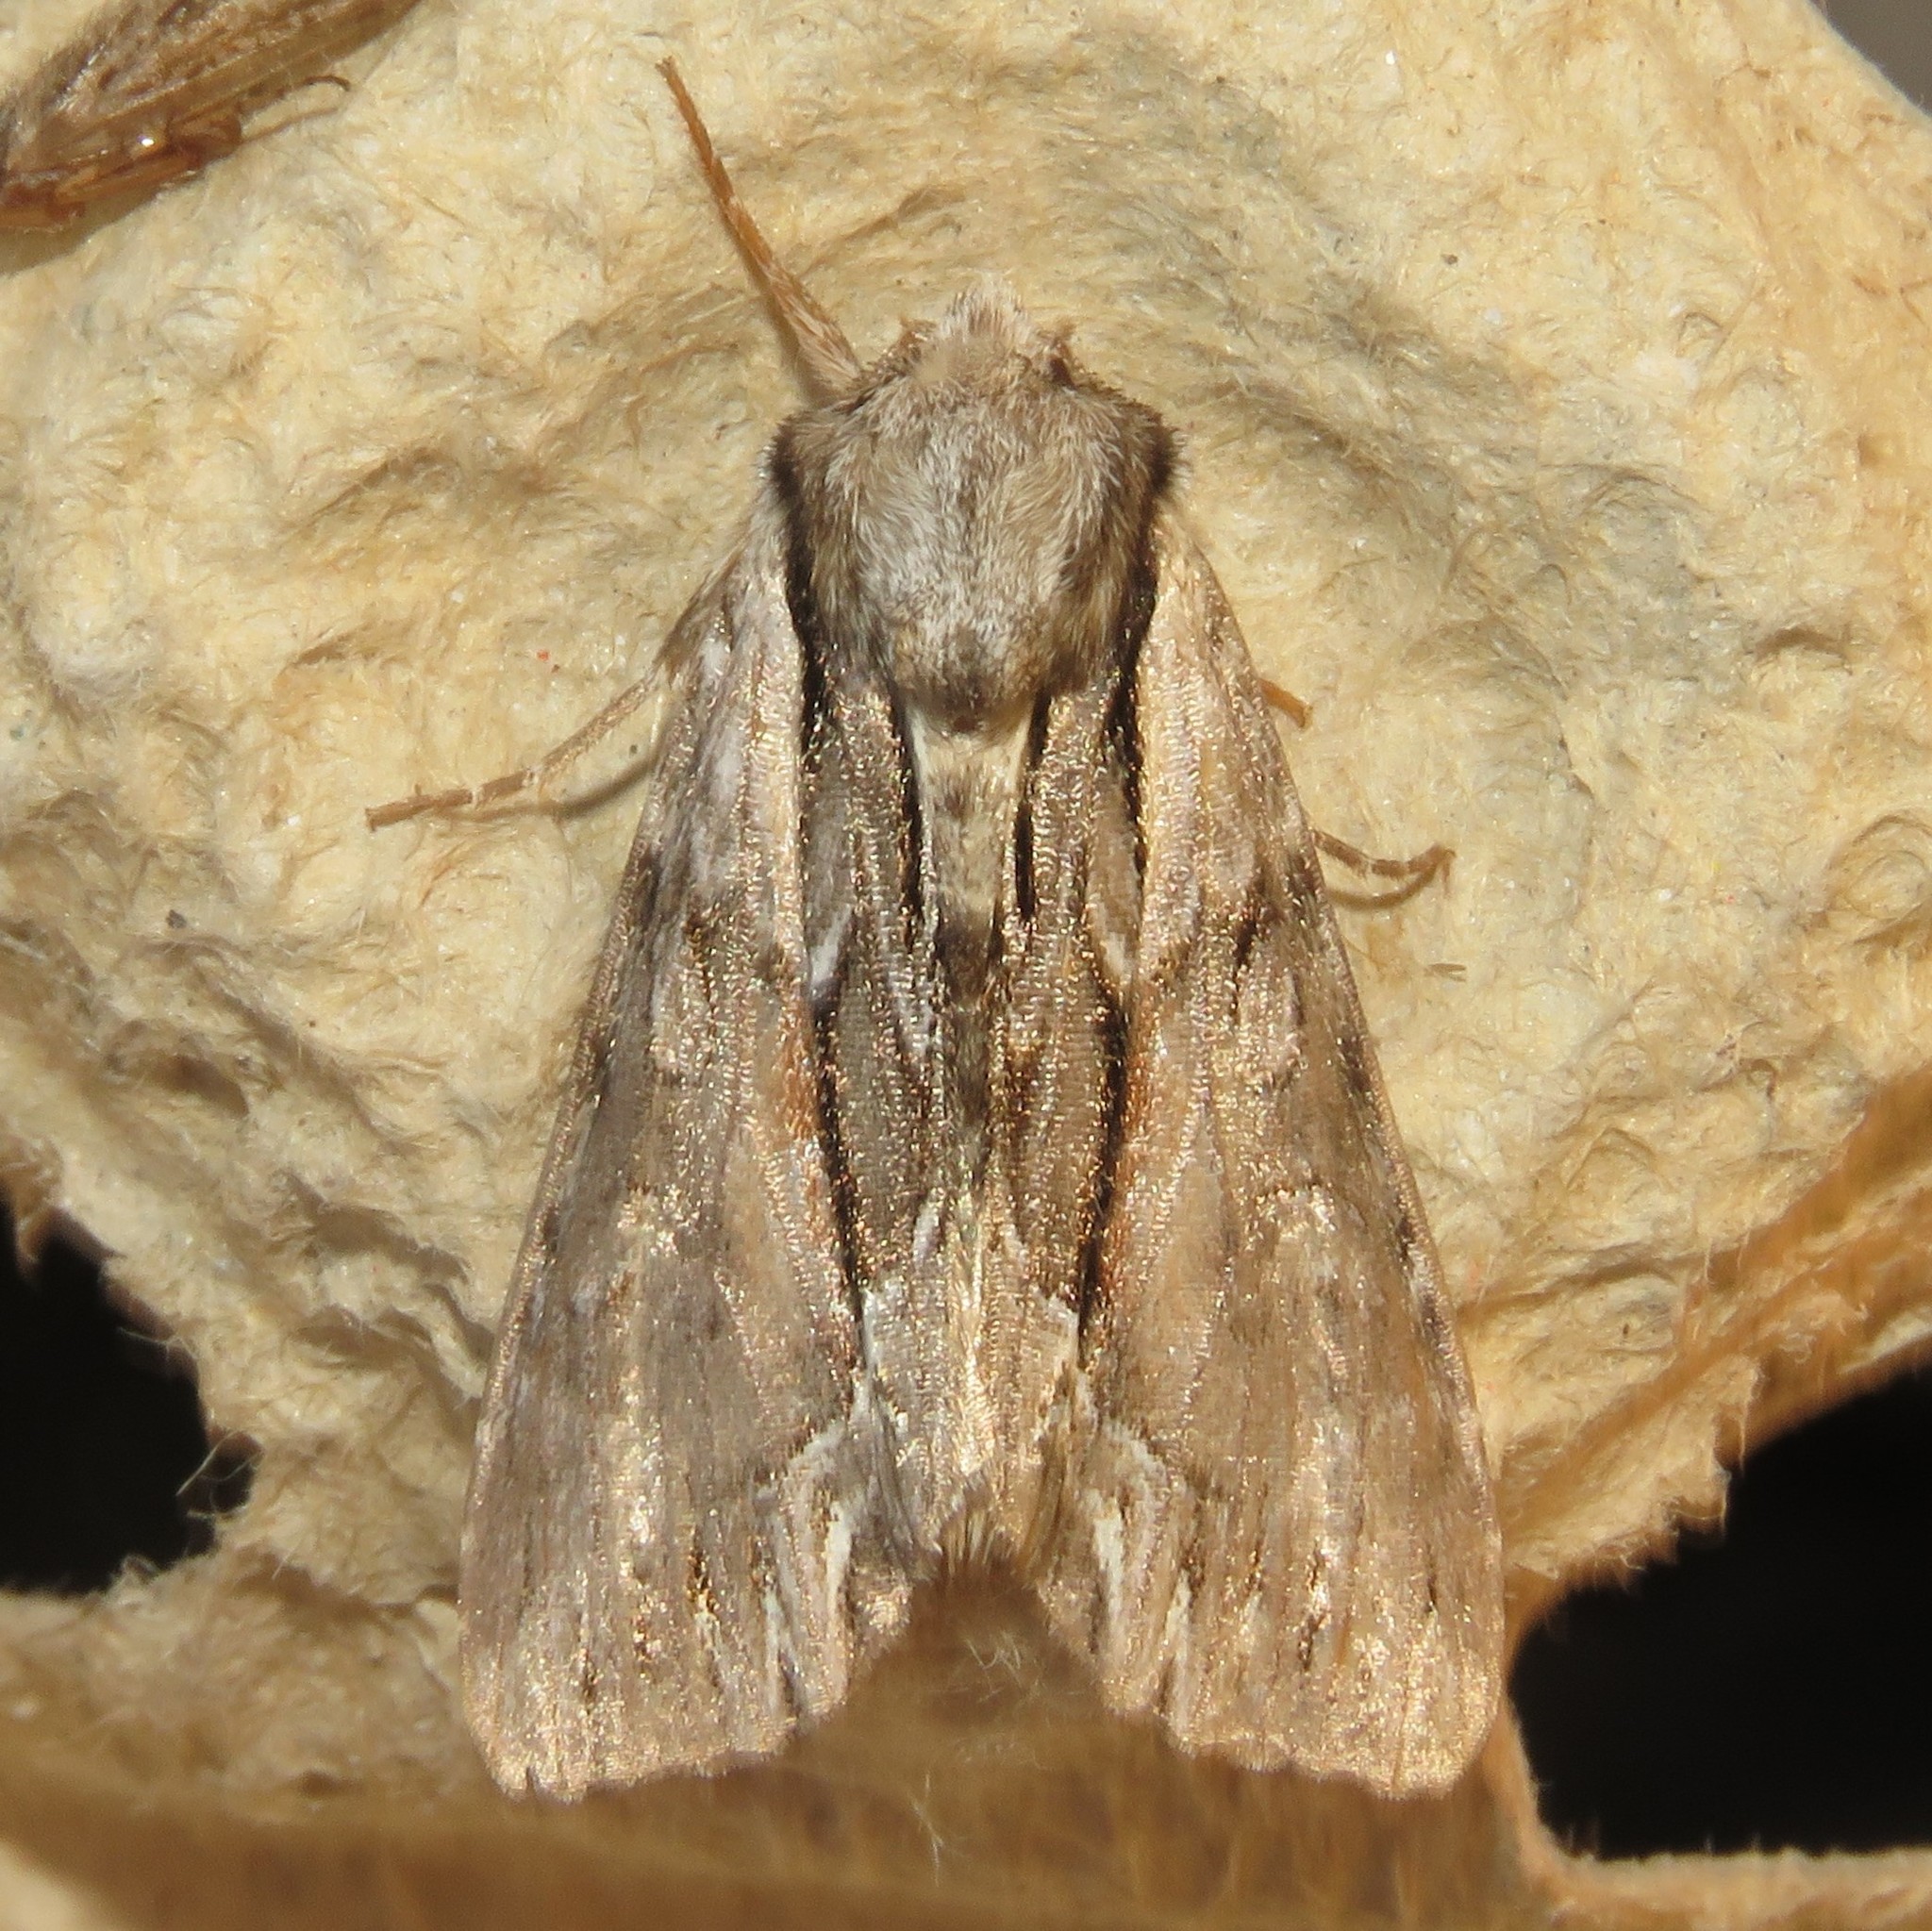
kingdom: Animalia
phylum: Arthropoda
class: Insecta
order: Lepidoptera
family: Noctuidae
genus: Hyppa
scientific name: Hyppa xylinoides
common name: Common hyppa moth
